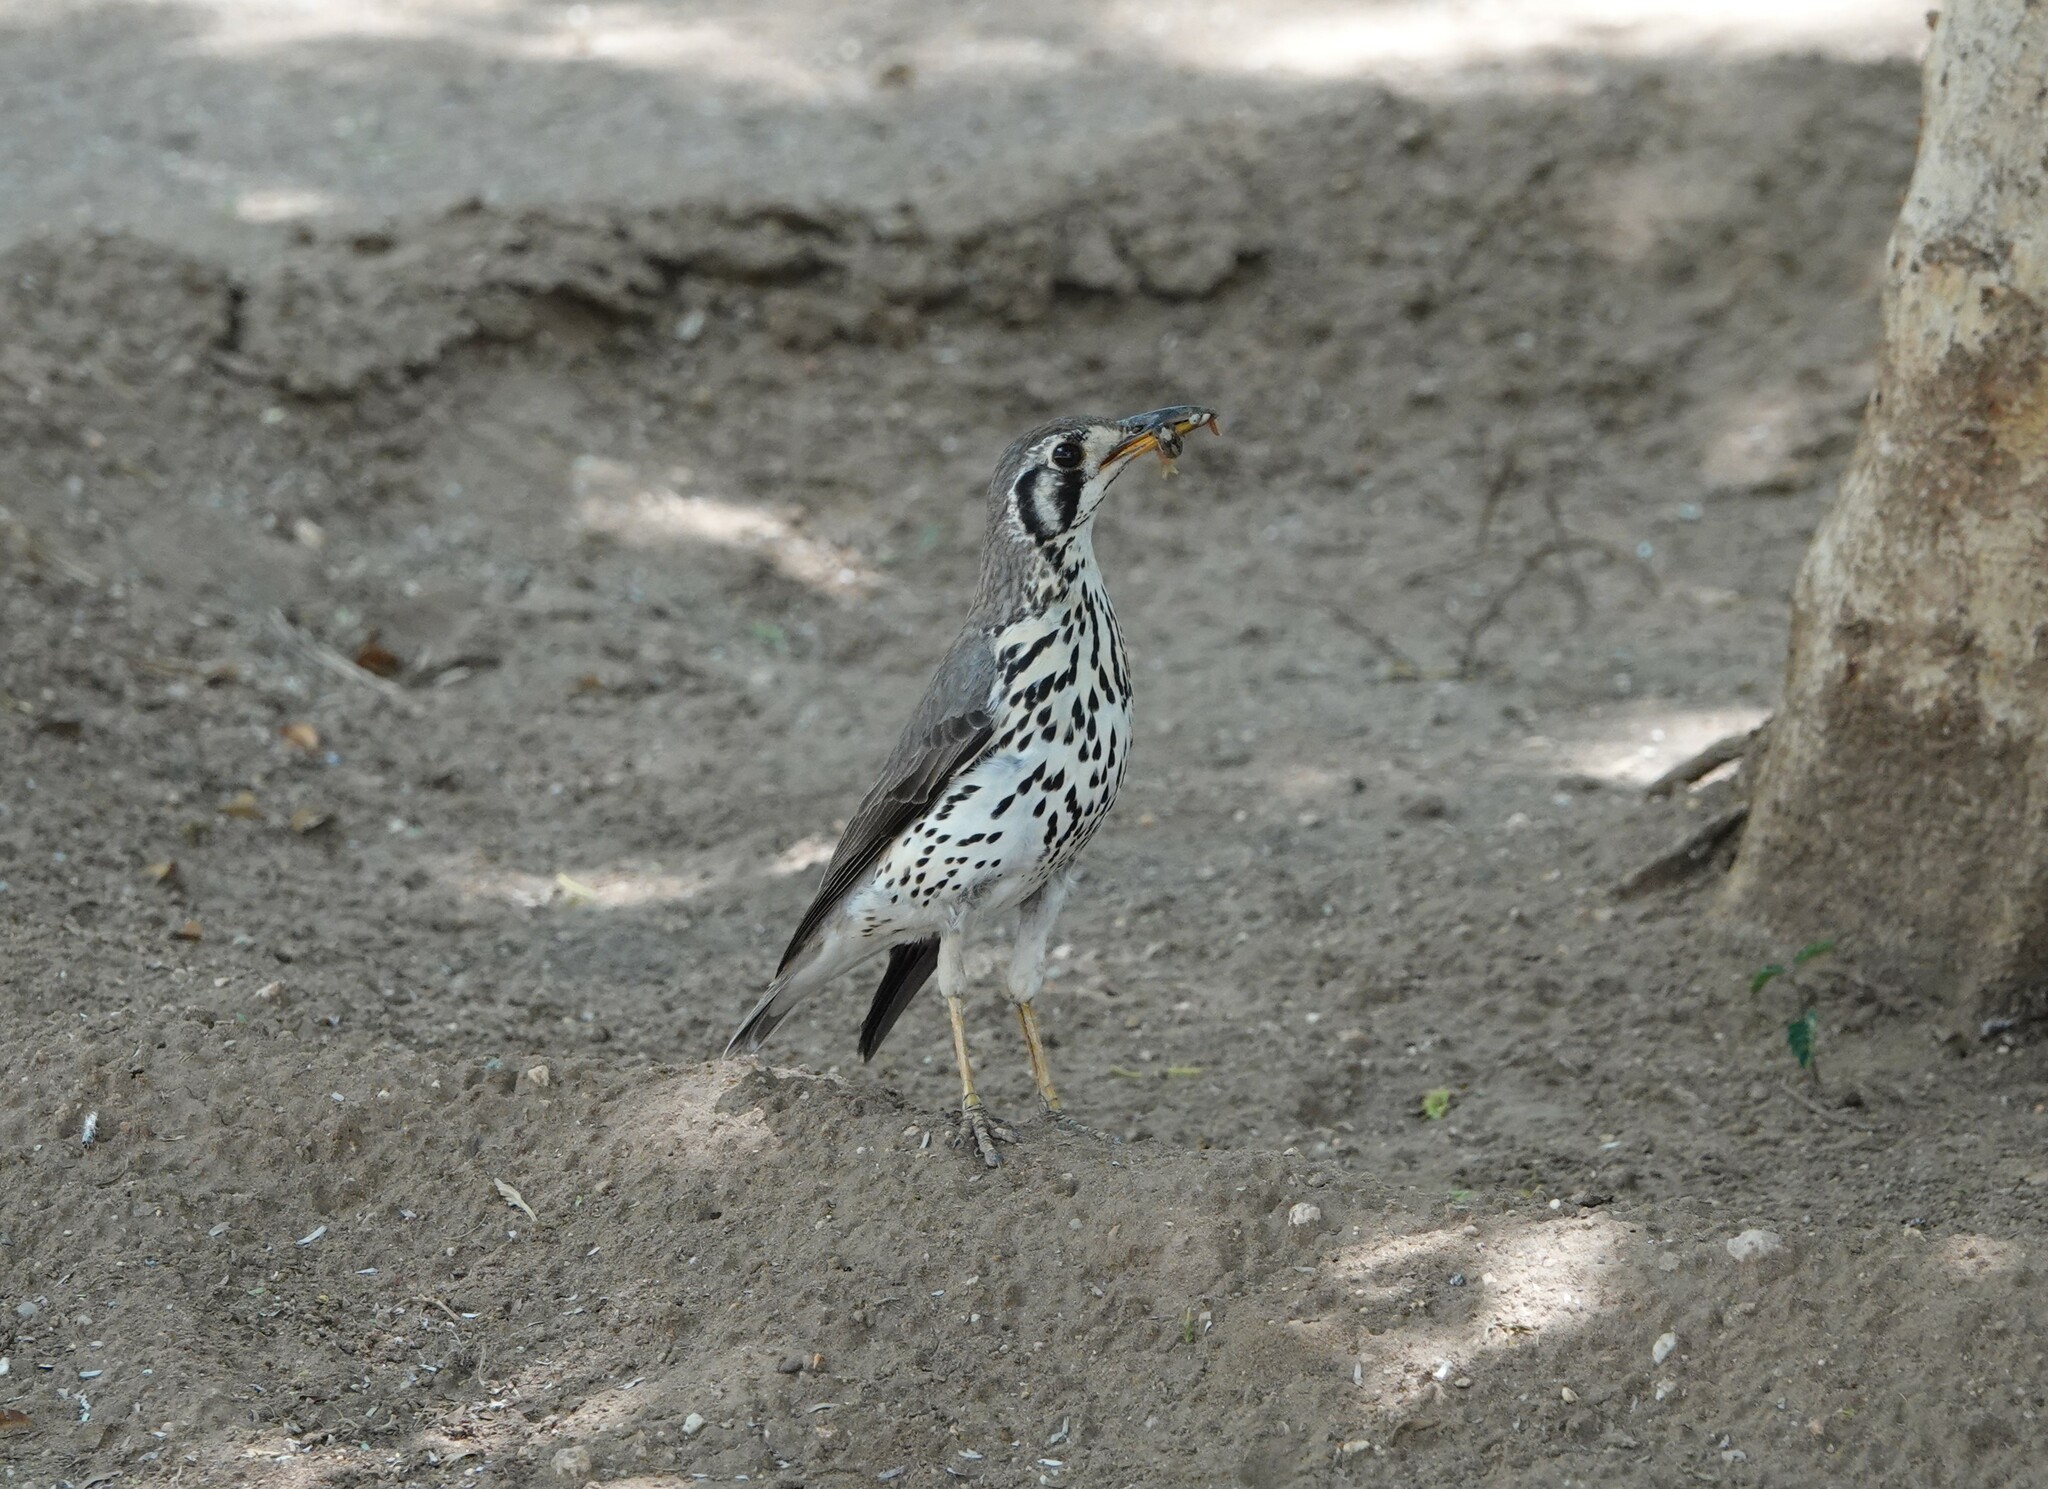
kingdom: Animalia
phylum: Chordata
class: Aves
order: Passeriformes
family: Turdidae
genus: Psophocichla
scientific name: Psophocichla litsitsirupa
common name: Groundscraper thrush
